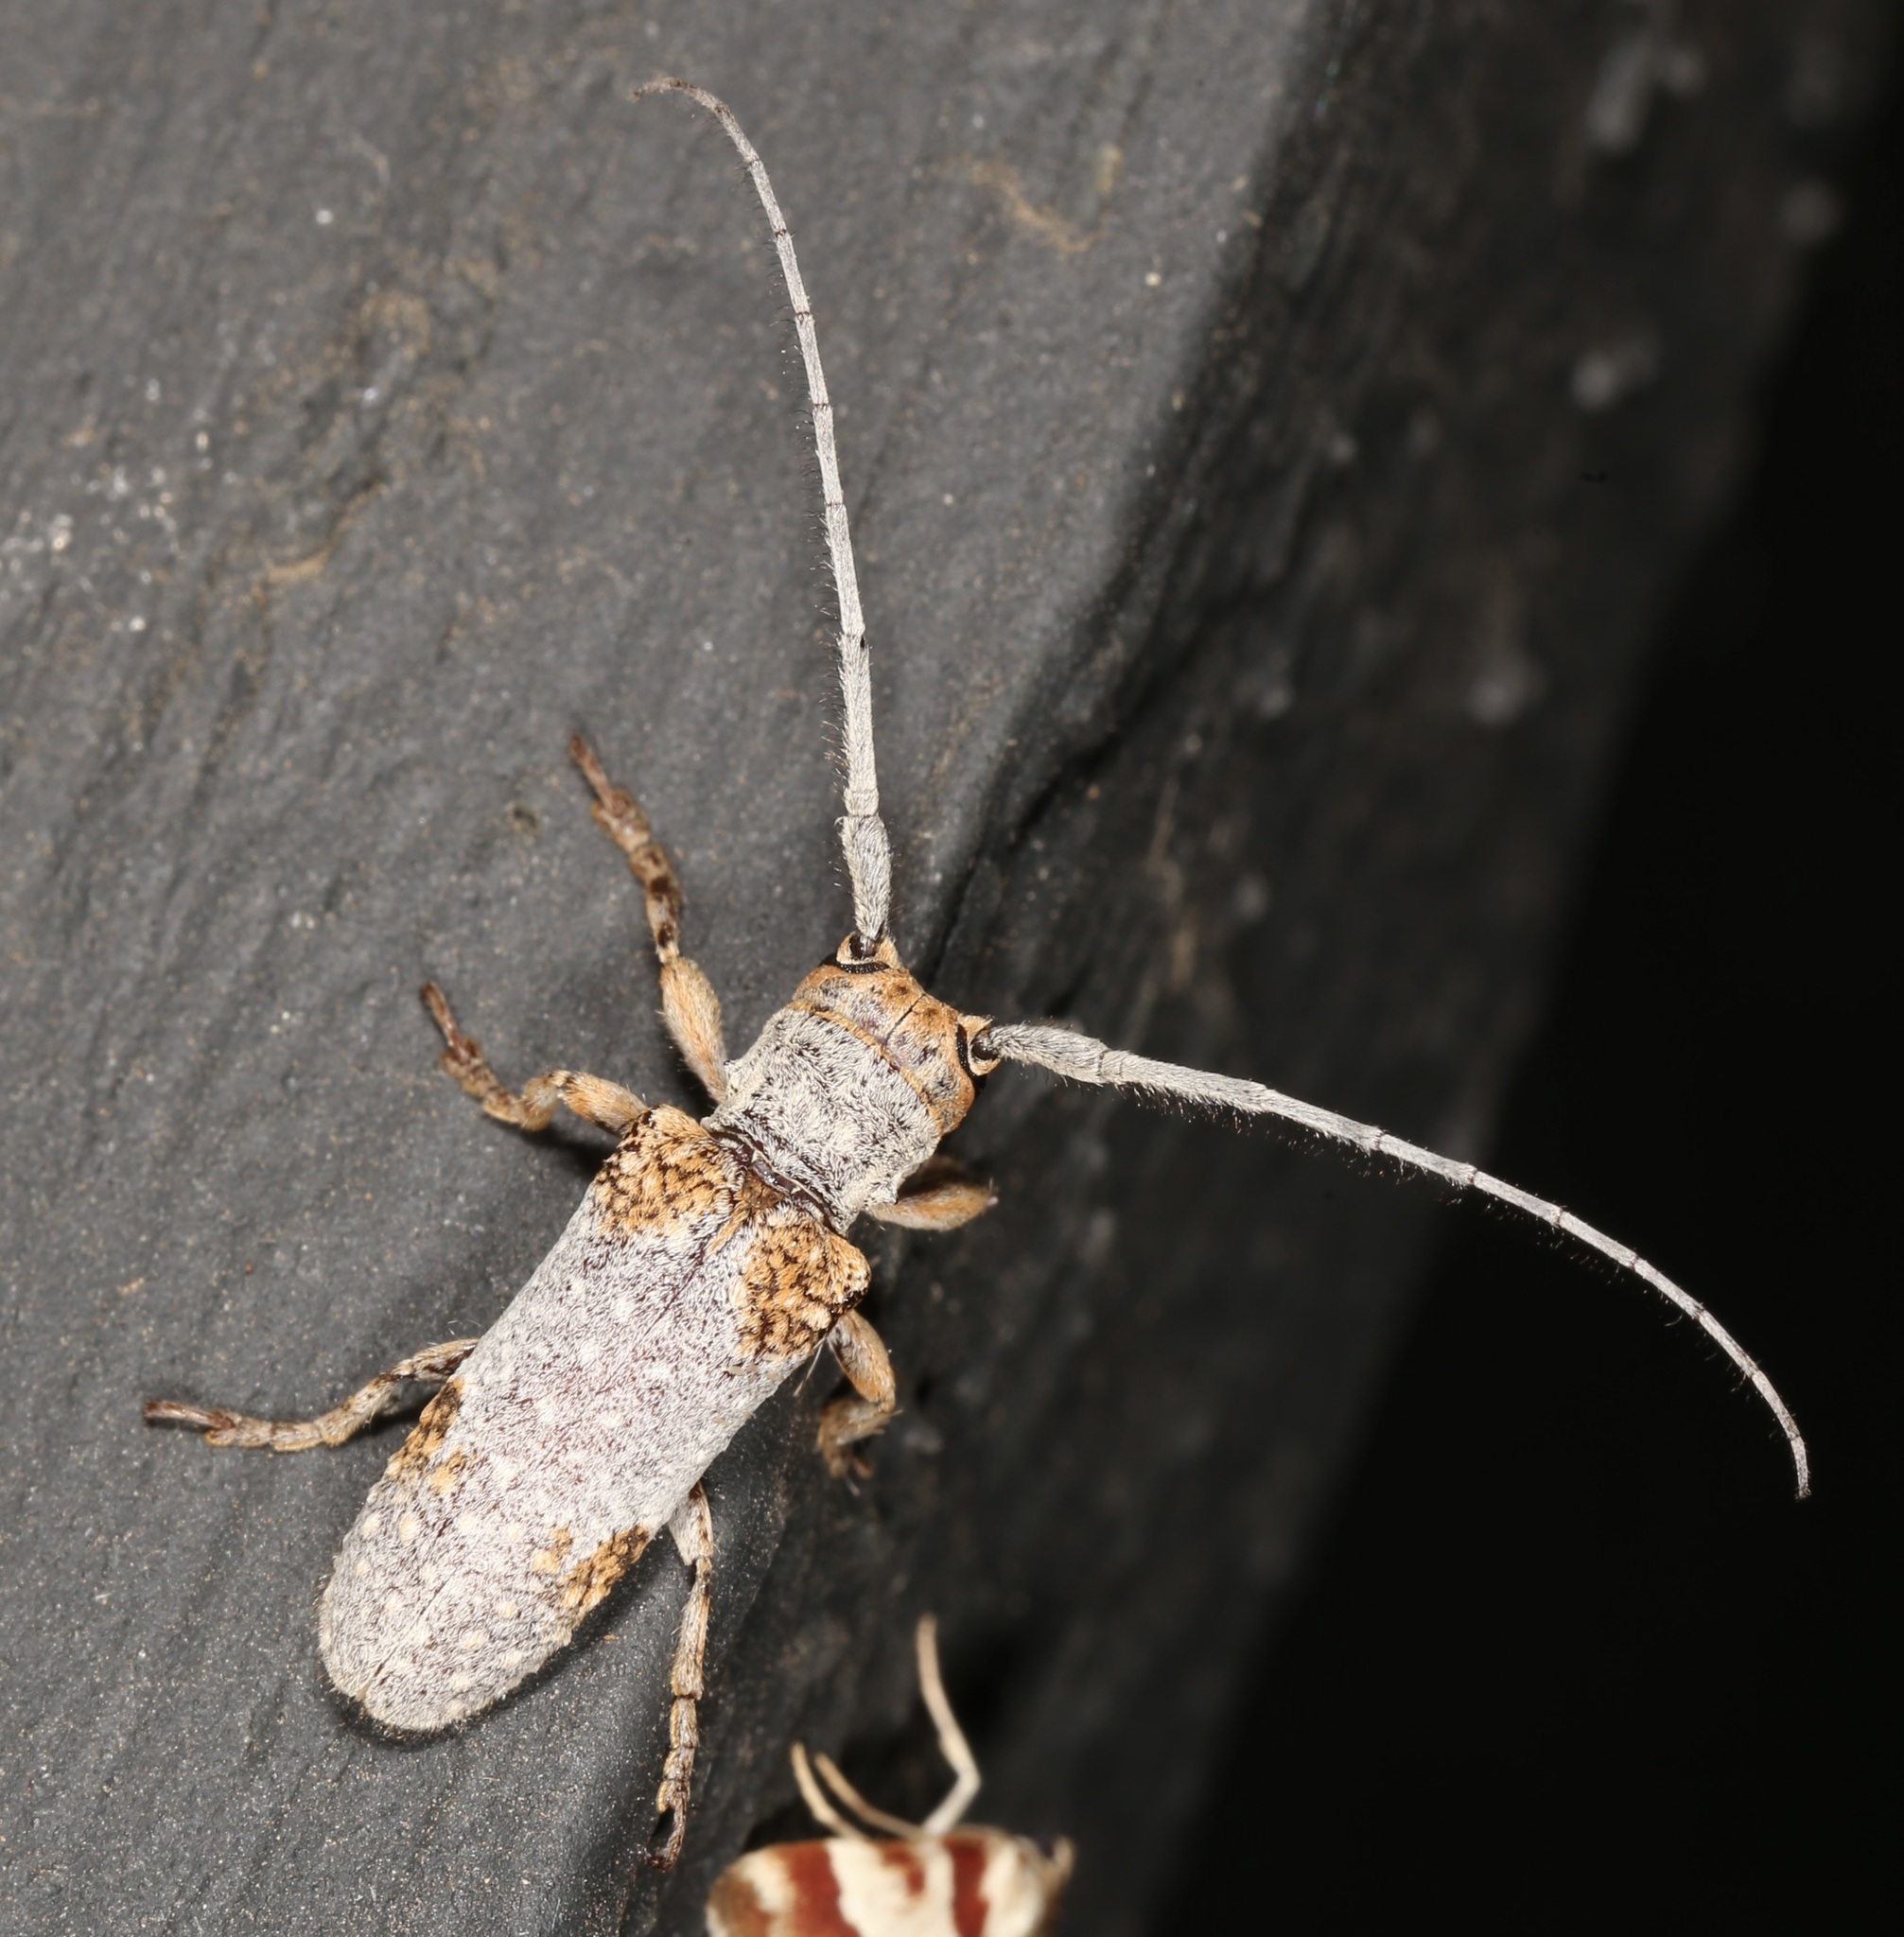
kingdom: Animalia
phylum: Arthropoda
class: Insecta
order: Coleoptera
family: Cerambycidae
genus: Oncideres
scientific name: Oncideres quercus
